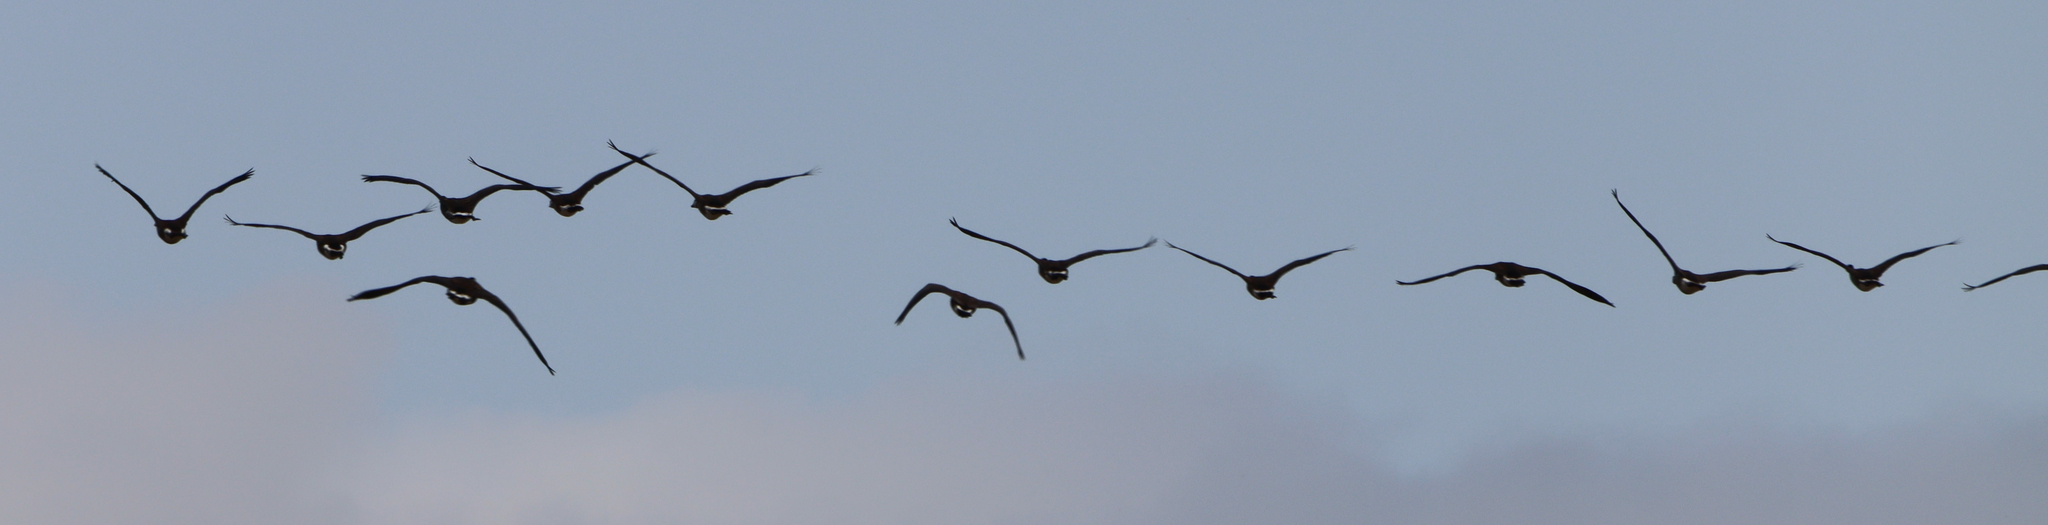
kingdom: Animalia
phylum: Chordata
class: Aves
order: Anseriformes
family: Anatidae
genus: Branta
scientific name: Branta canadensis
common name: Canada goose
